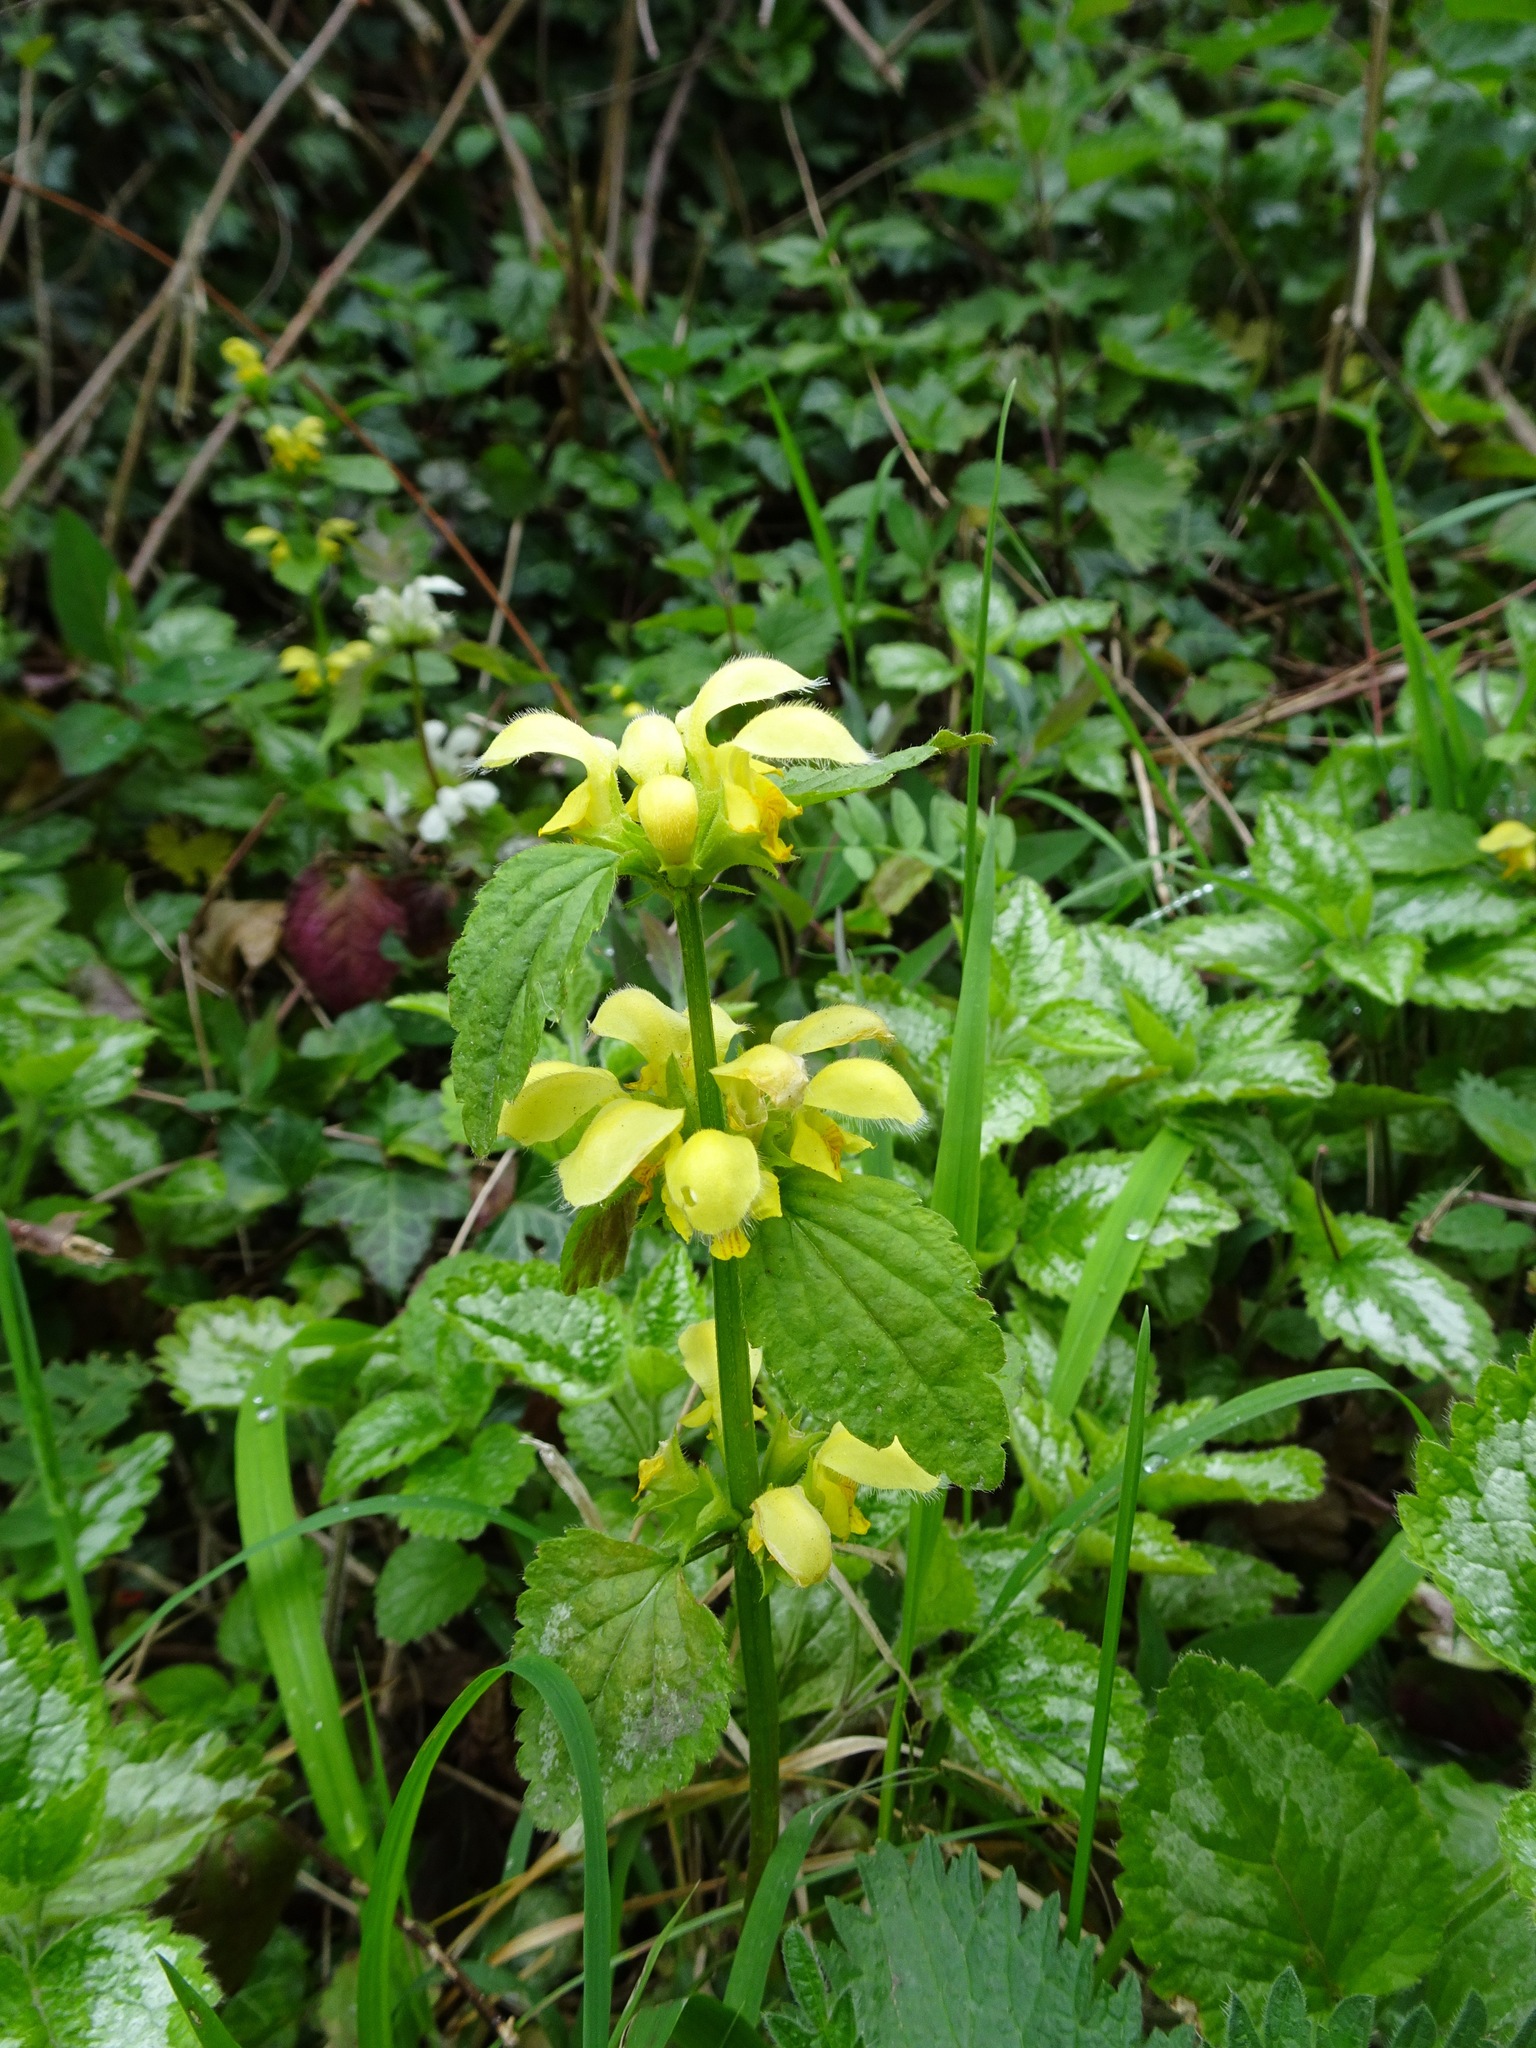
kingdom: Plantae
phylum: Tracheophyta
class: Magnoliopsida
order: Lamiales
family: Lamiaceae
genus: Lamium
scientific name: Lamium galeobdolon
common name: Yellow archangel
